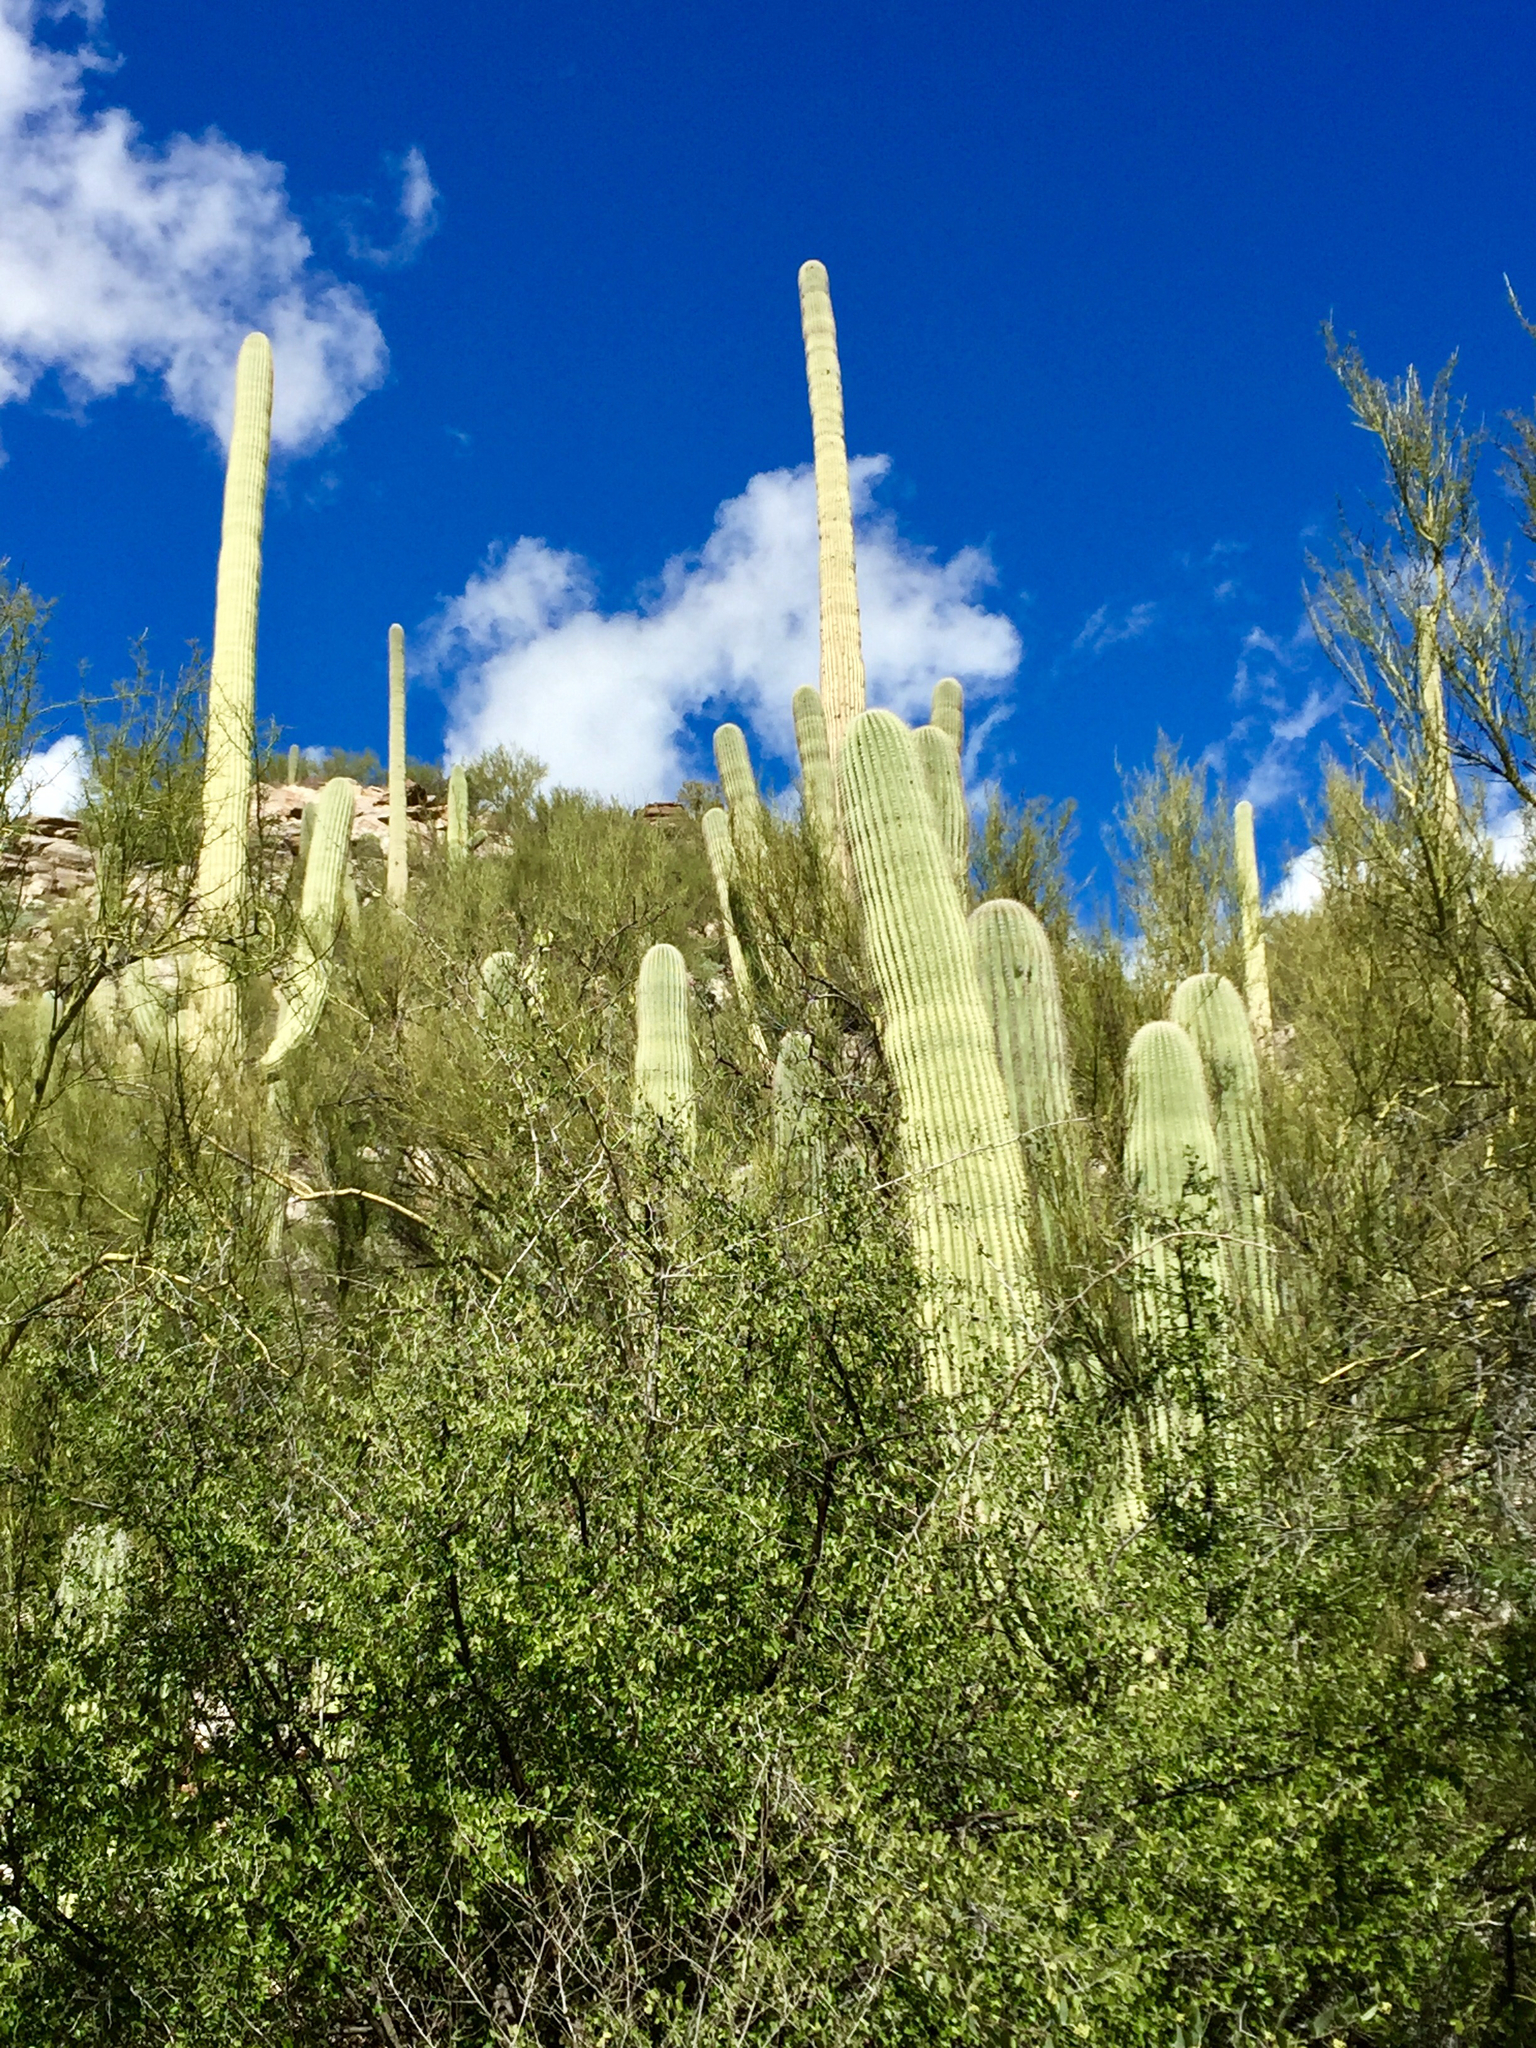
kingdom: Plantae
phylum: Tracheophyta
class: Magnoliopsida
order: Caryophyllales
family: Cactaceae
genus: Carnegiea
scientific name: Carnegiea gigantea
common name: Saguaro
